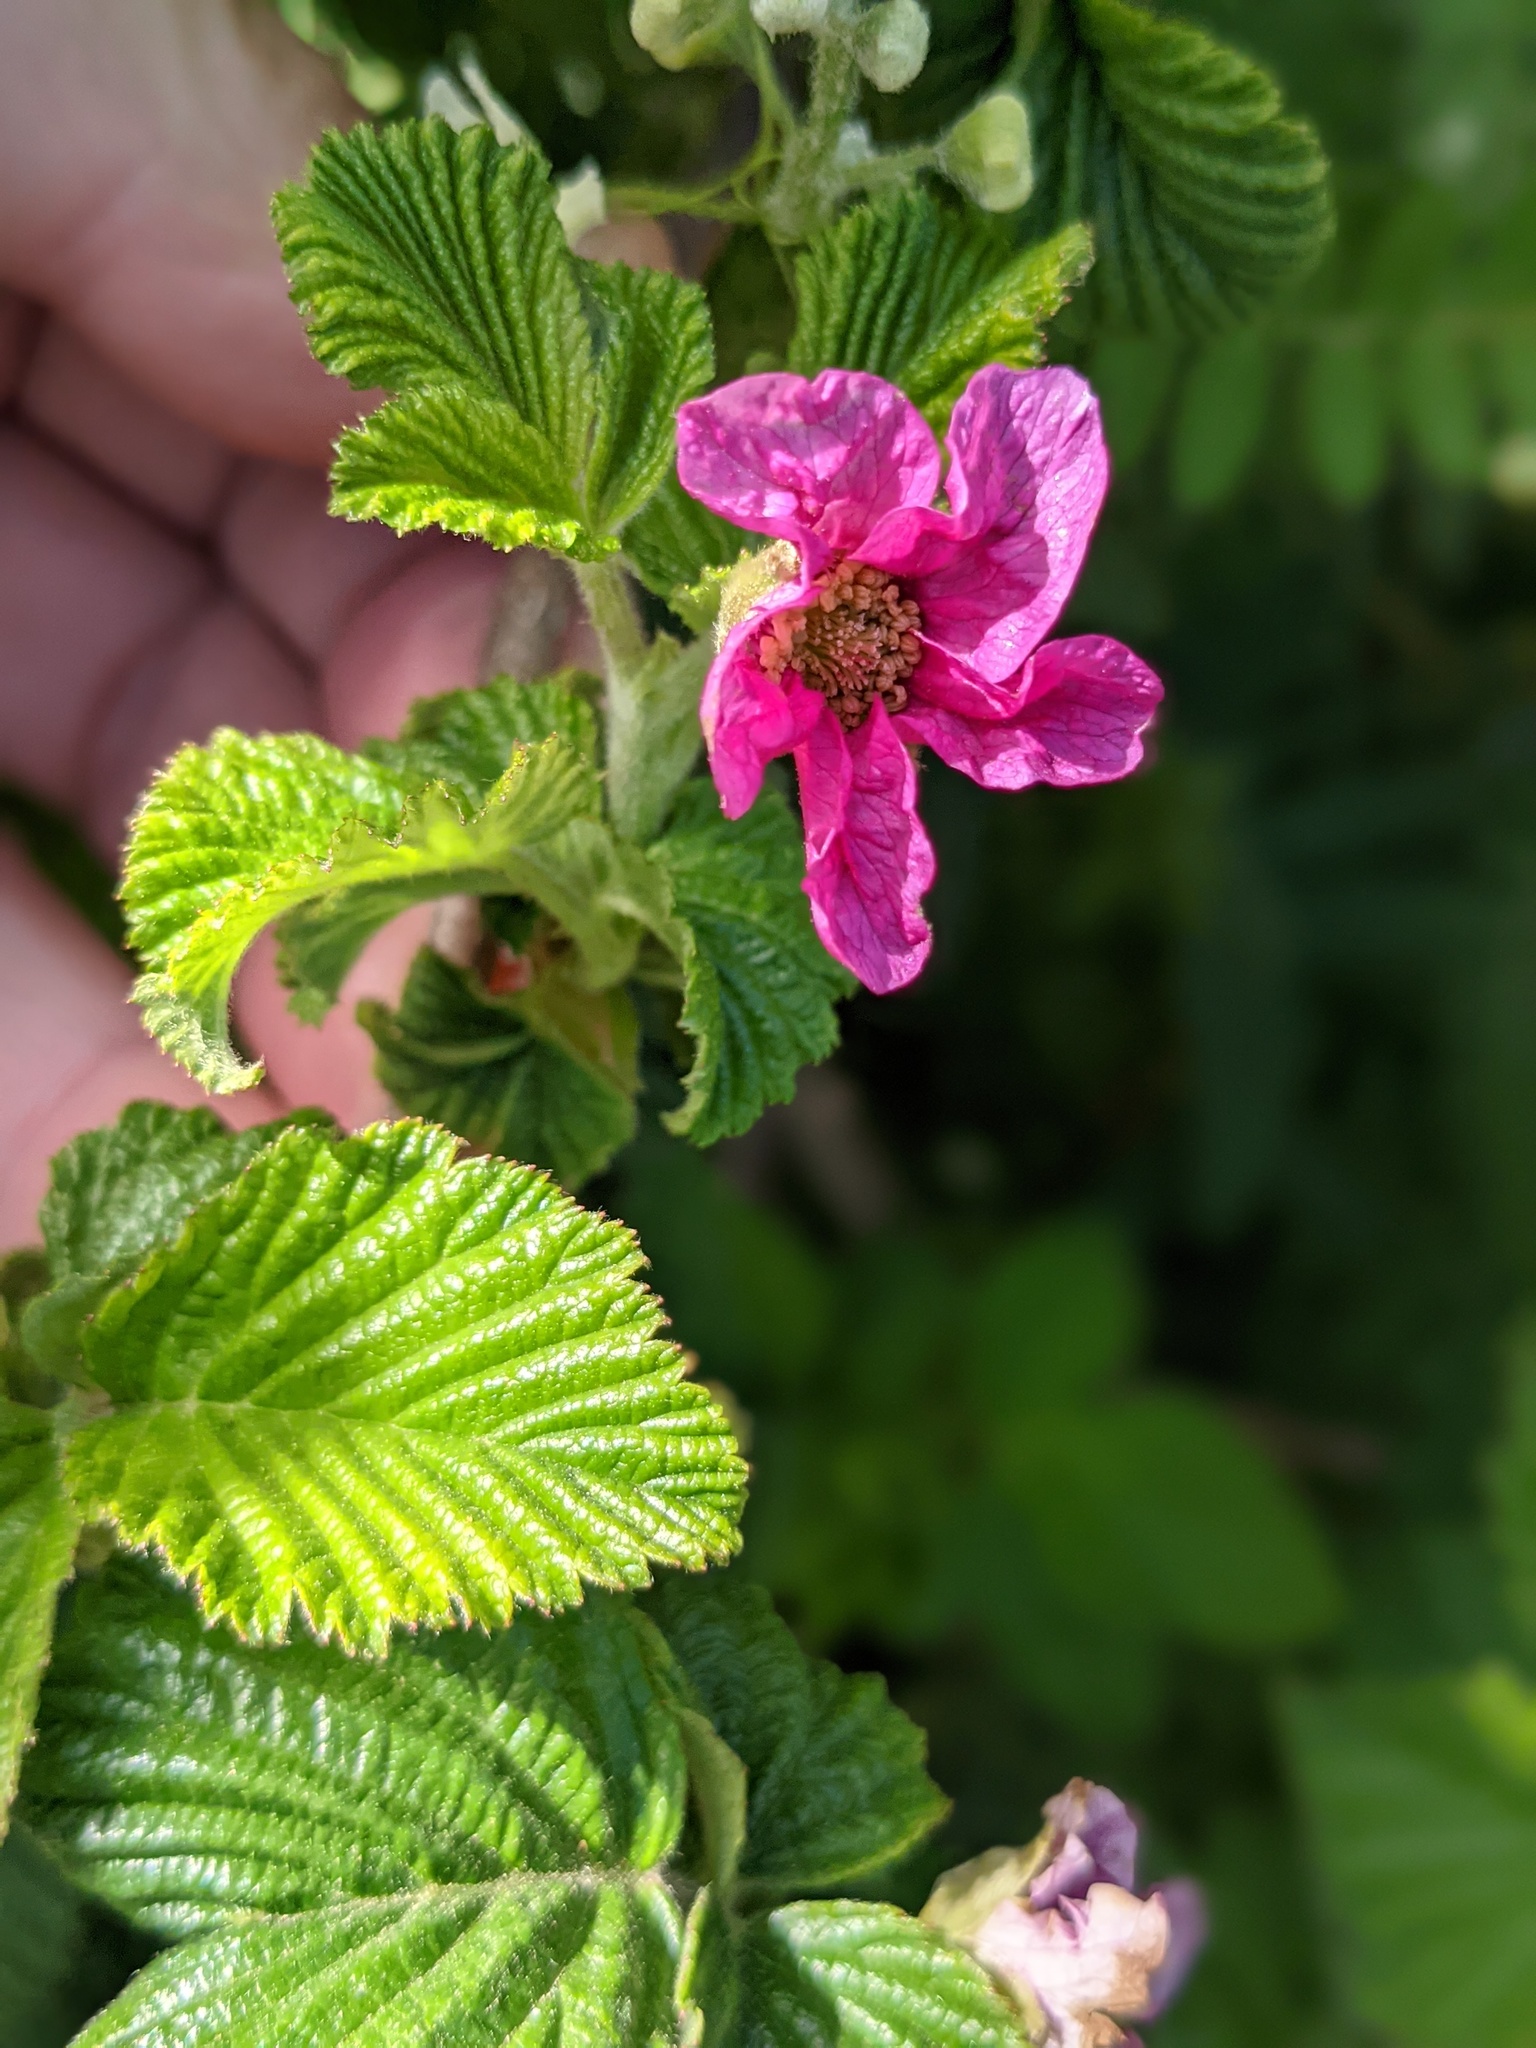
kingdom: Plantae
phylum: Tracheophyta
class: Magnoliopsida
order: Rosales
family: Rosaceae
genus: Rubus
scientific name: Rubus spectabilis
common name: Salmonberry
